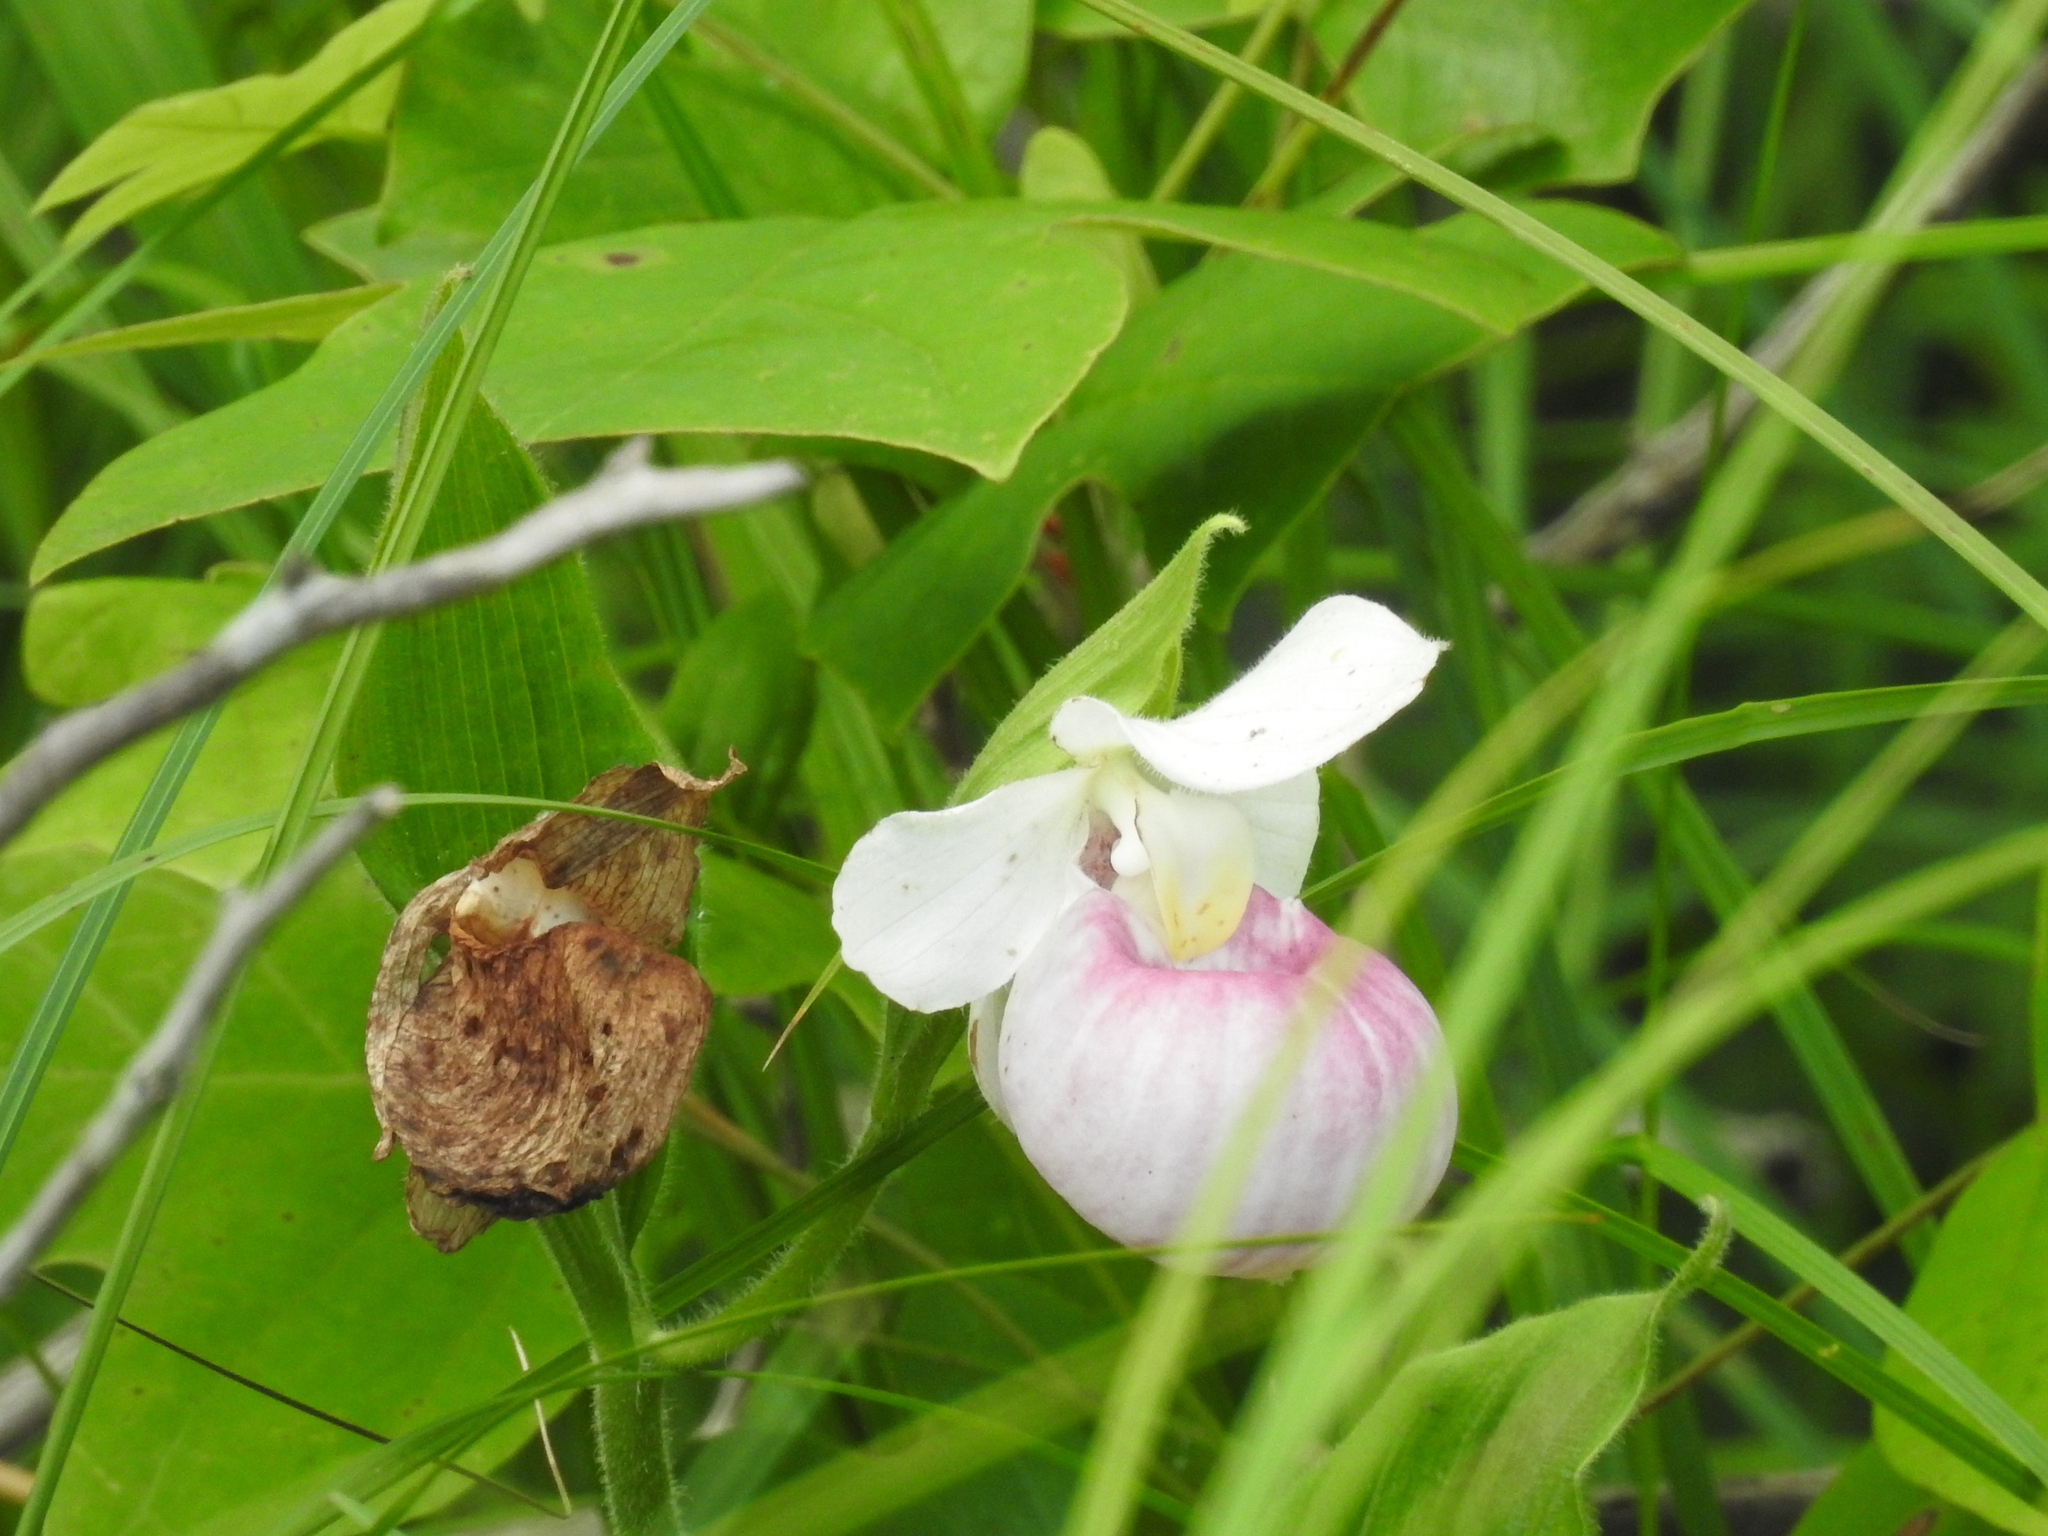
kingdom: Plantae
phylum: Tracheophyta
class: Liliopsida
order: Asparagales
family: Orchidaceae
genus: Cypripedium
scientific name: Cypripedium reginae
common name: Queen lady's-slipper
